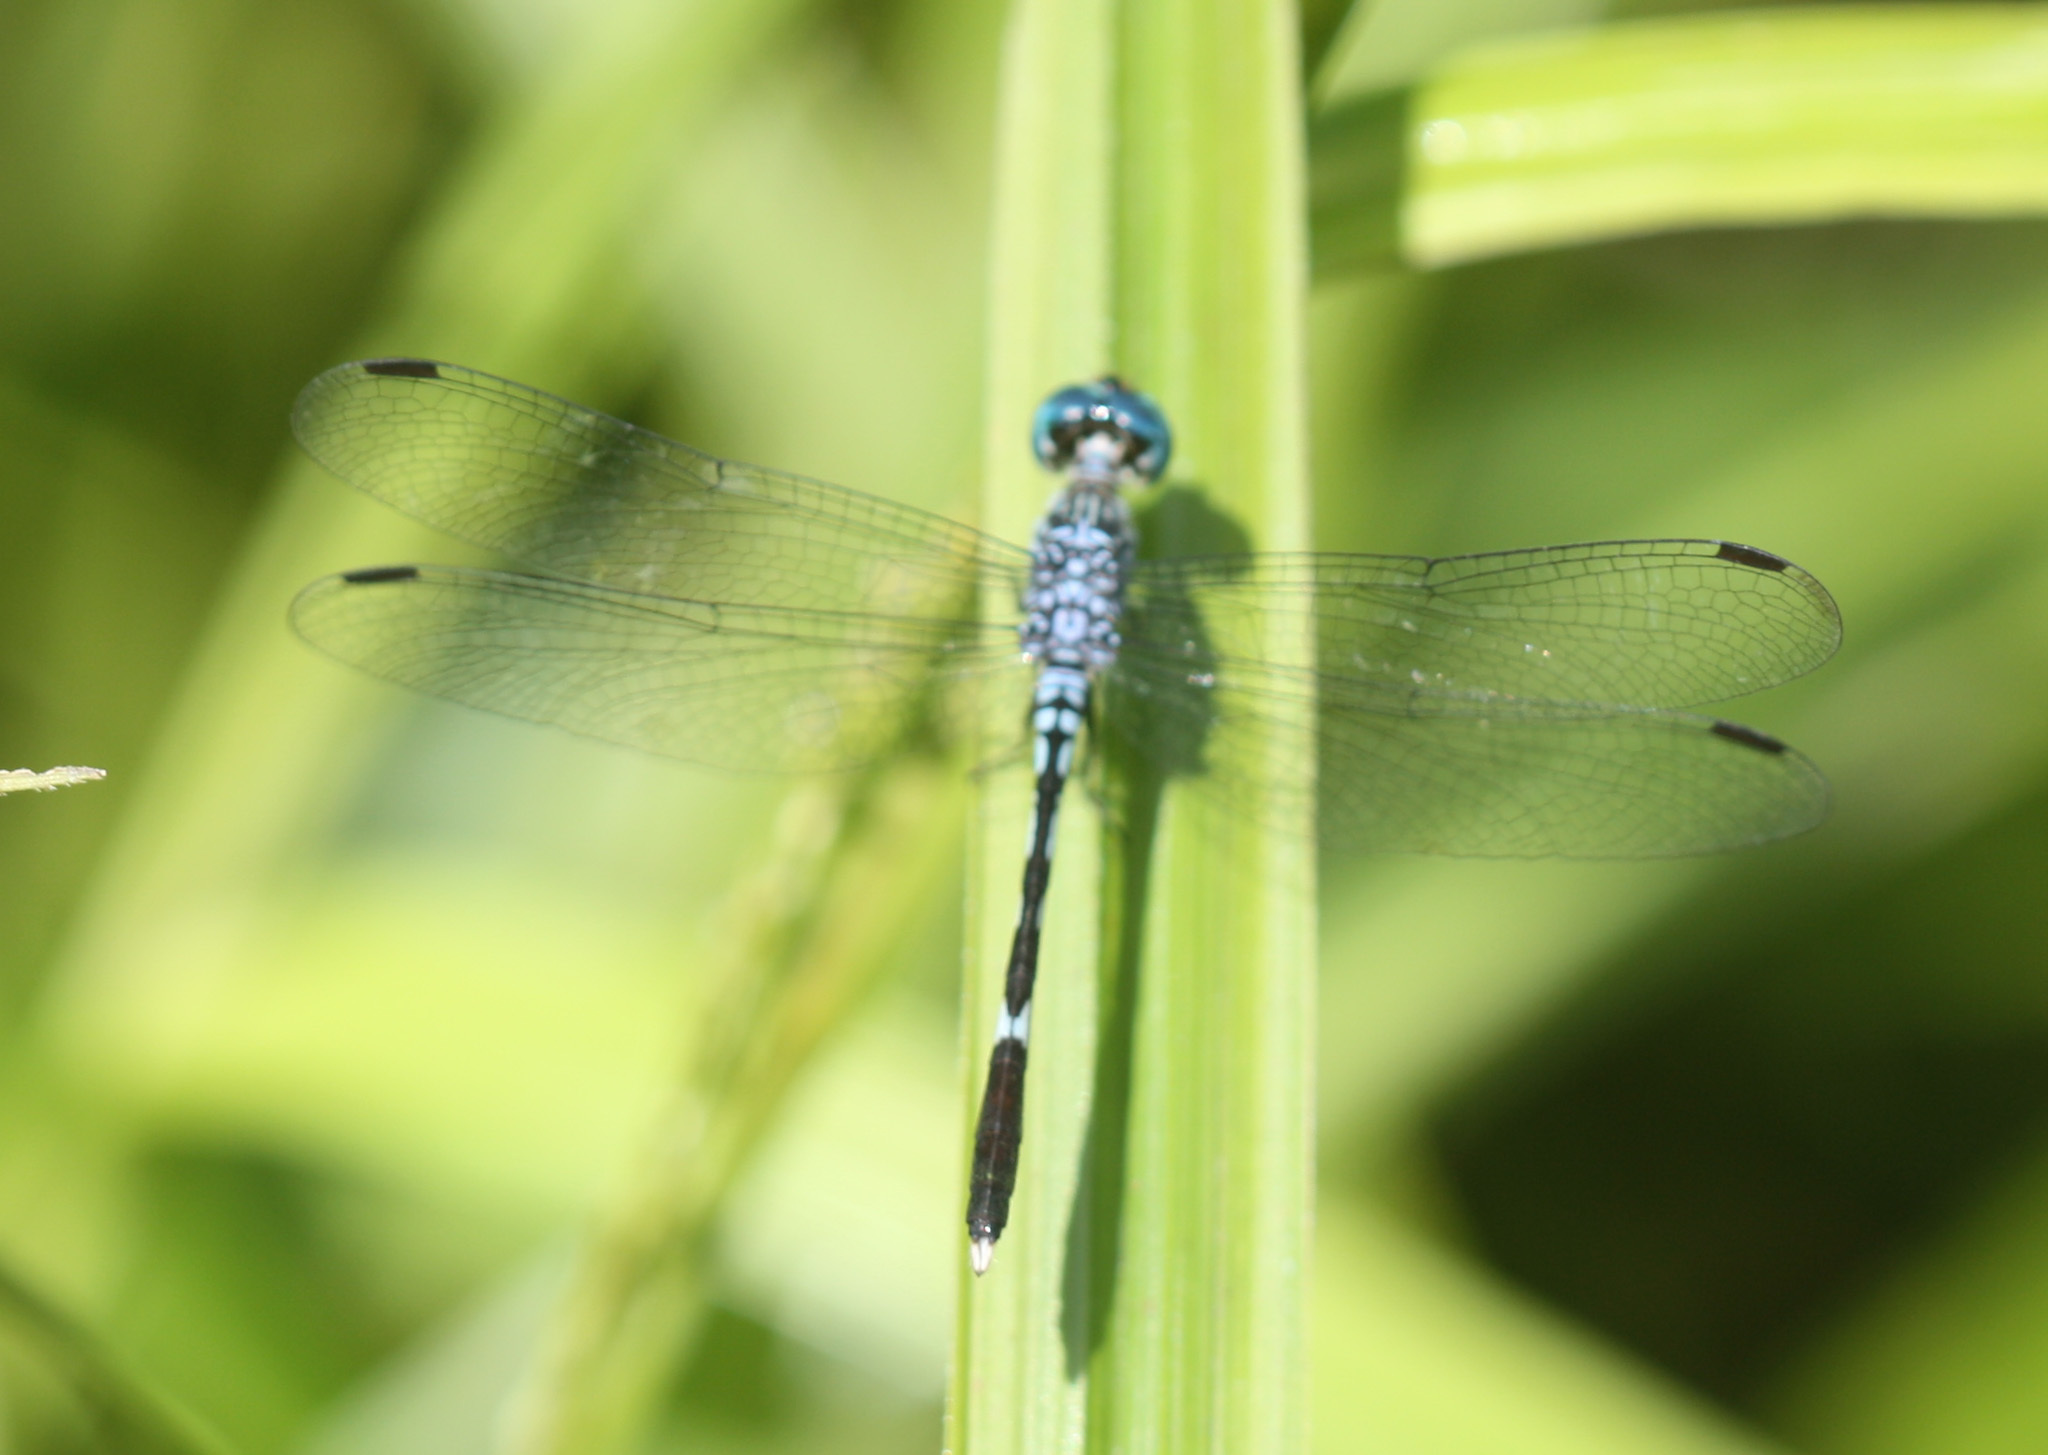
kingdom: Animalia
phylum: Arthropoda
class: Insecta
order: Odonata
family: Libellulidae
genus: Anatya
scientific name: Anatya guttata
